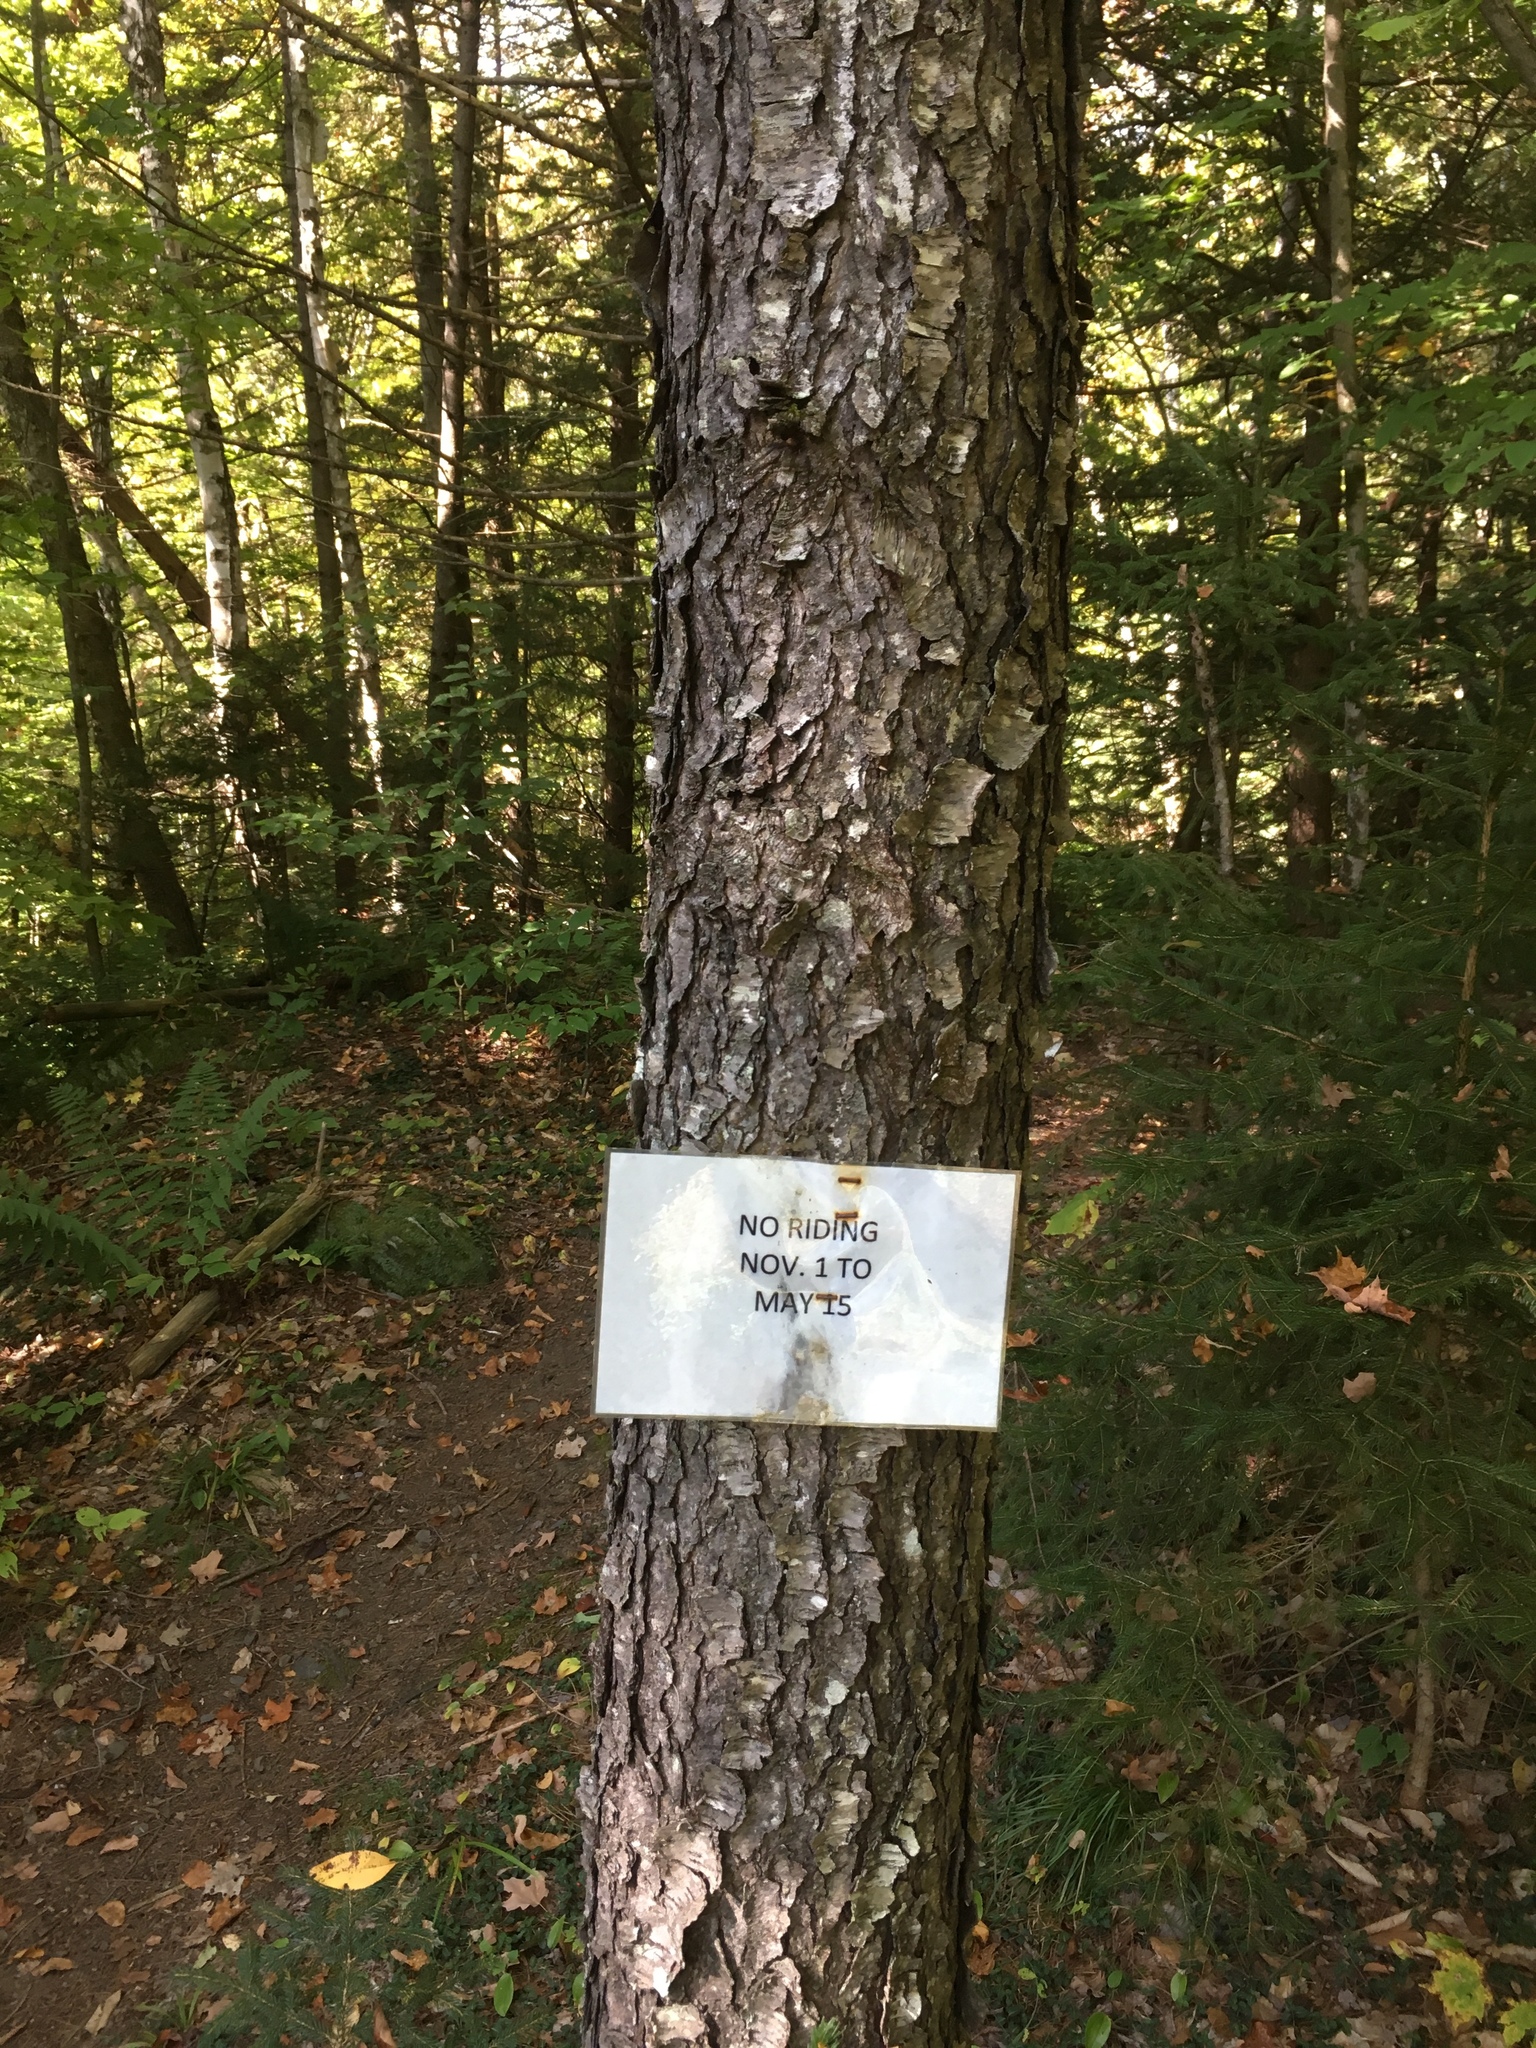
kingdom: Plantae
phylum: Tracheophyta
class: Magnoliopsida
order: Rosales
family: Rosaceae
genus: Prunus
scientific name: Prunus serotina
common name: Black cherry
